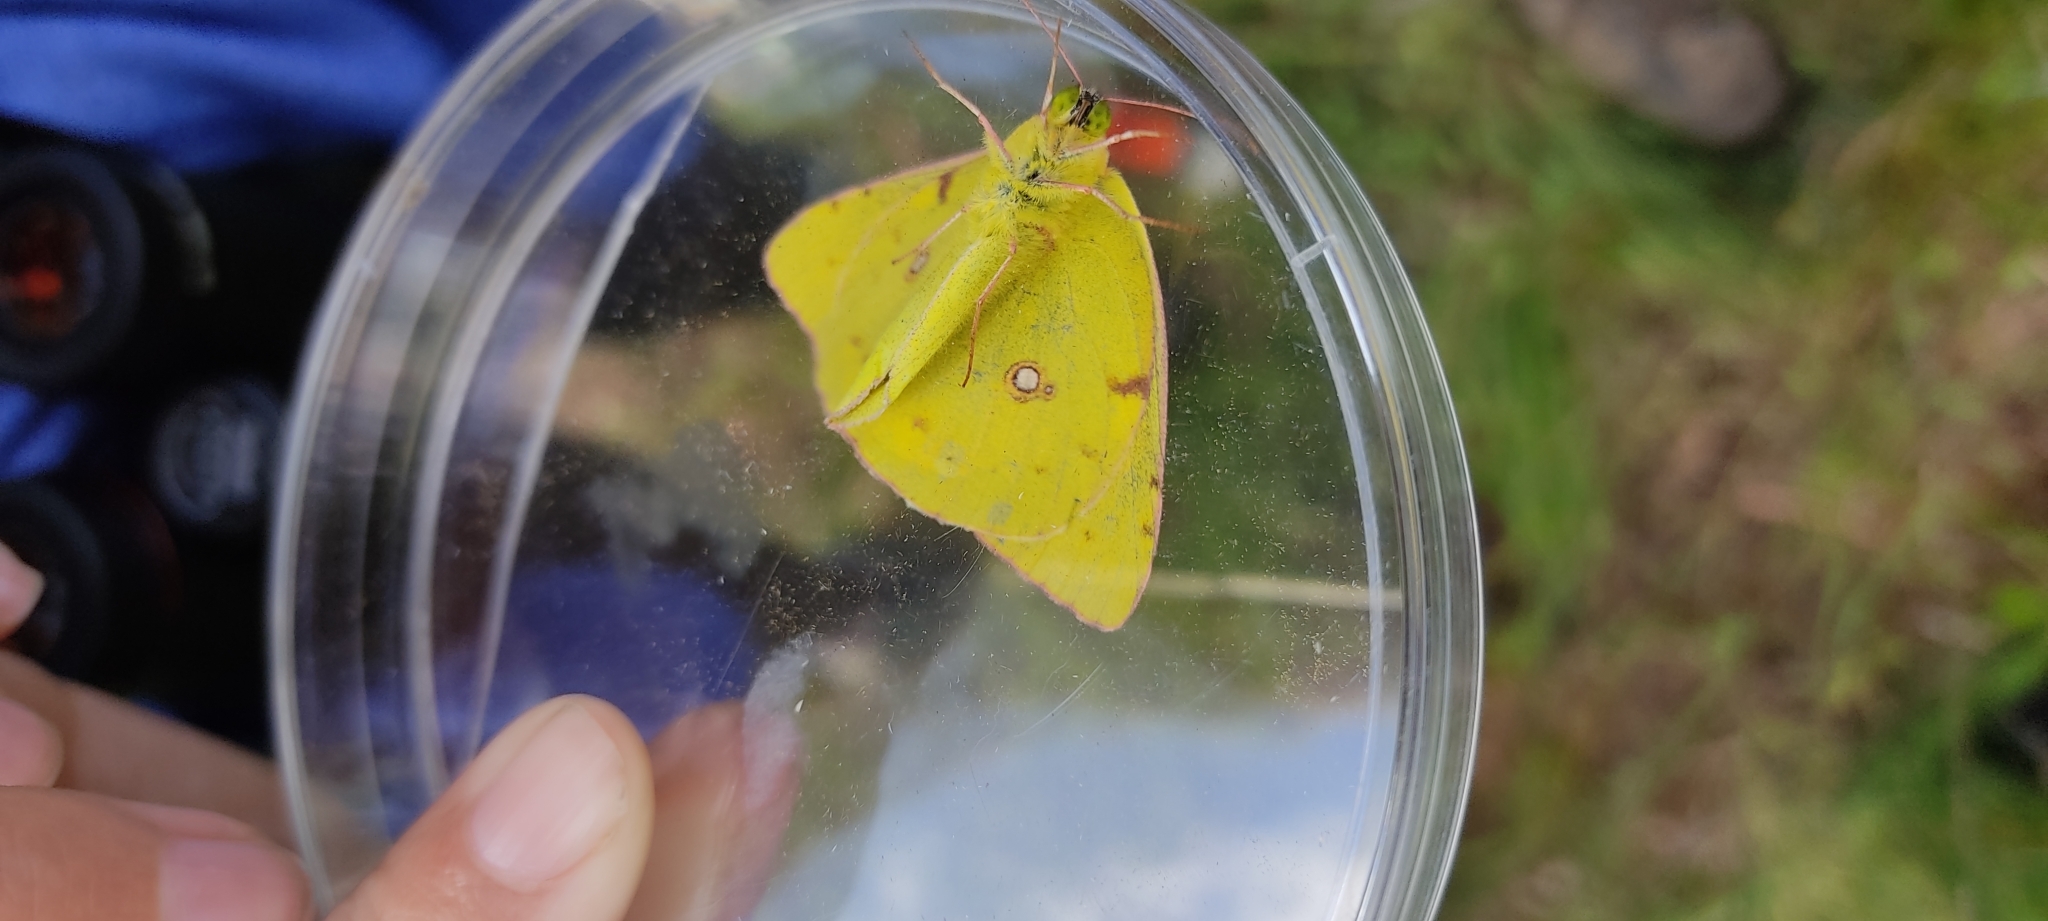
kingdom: Animalia
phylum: Arthropoda
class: Insecta
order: Lepidoptera
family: Pieridae
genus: Colias
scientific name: Colias croceus
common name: Clouded yellow
